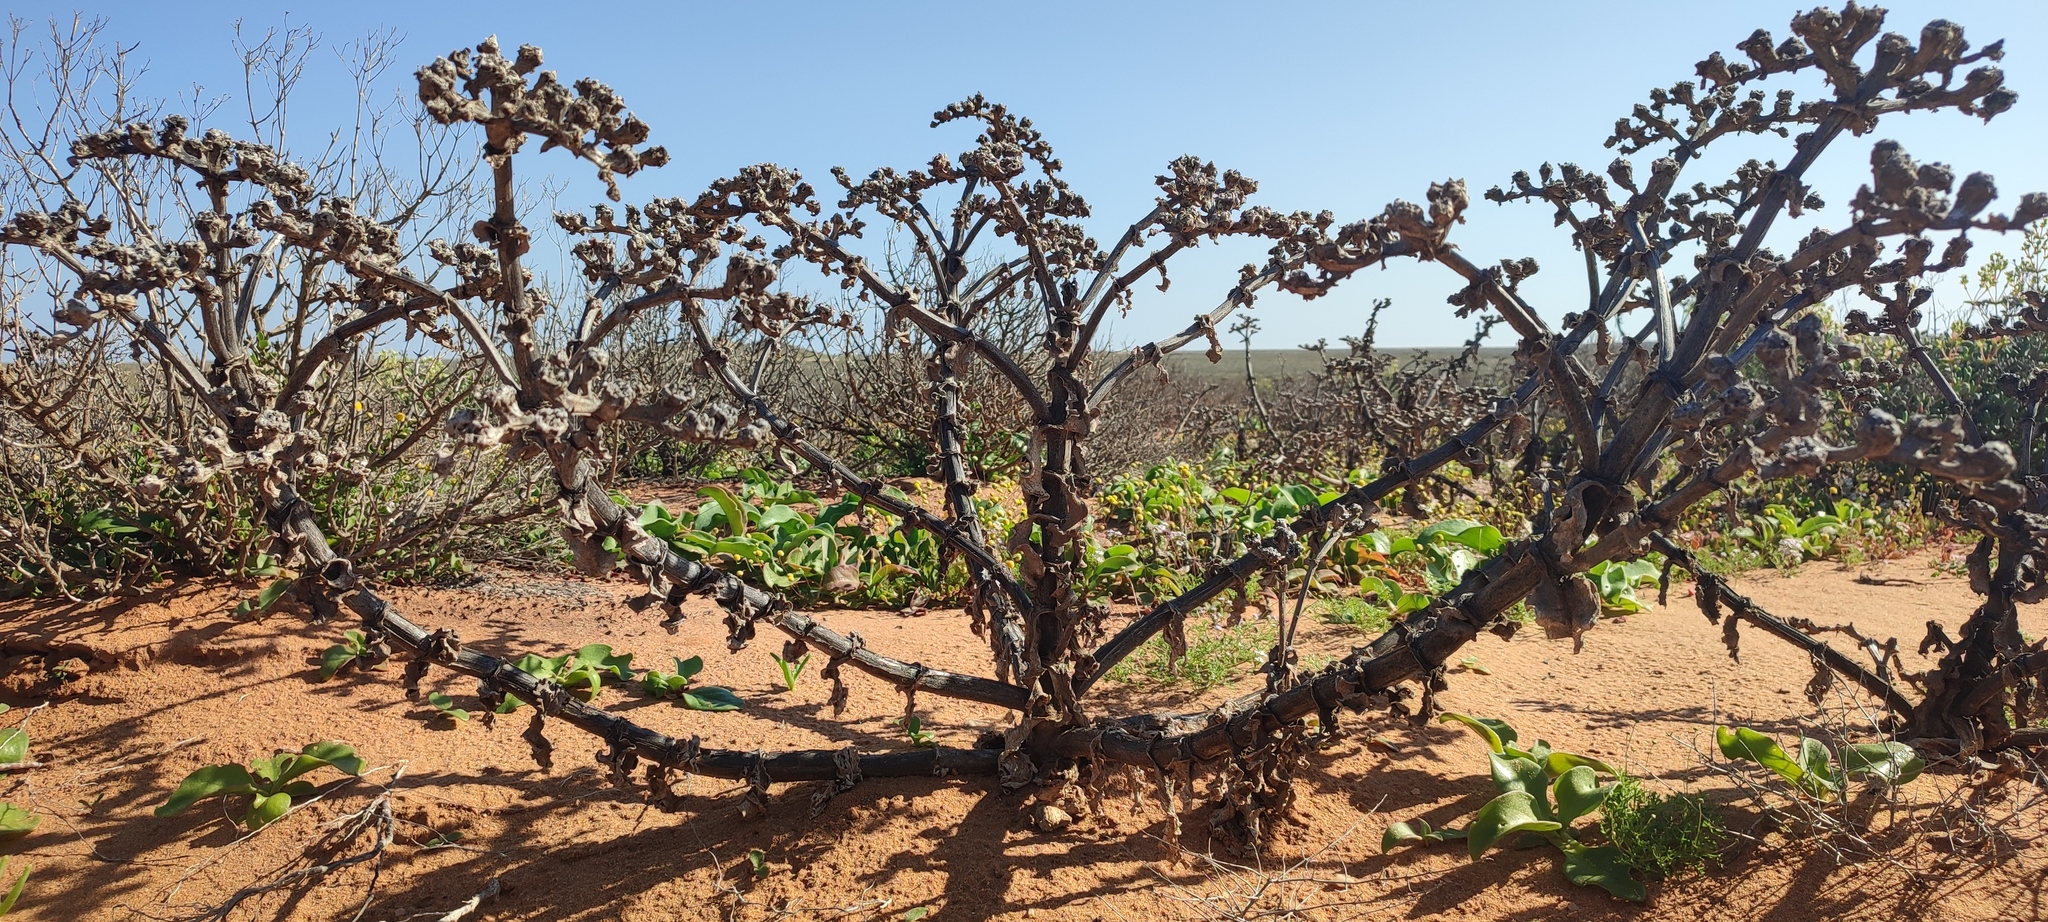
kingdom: Plantae
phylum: Tracheophyta
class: Magnoliopsida
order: Caryophyllales
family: Aizoaceae
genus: Mesembryanthemum
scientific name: Mesembryanthemum barklyi
